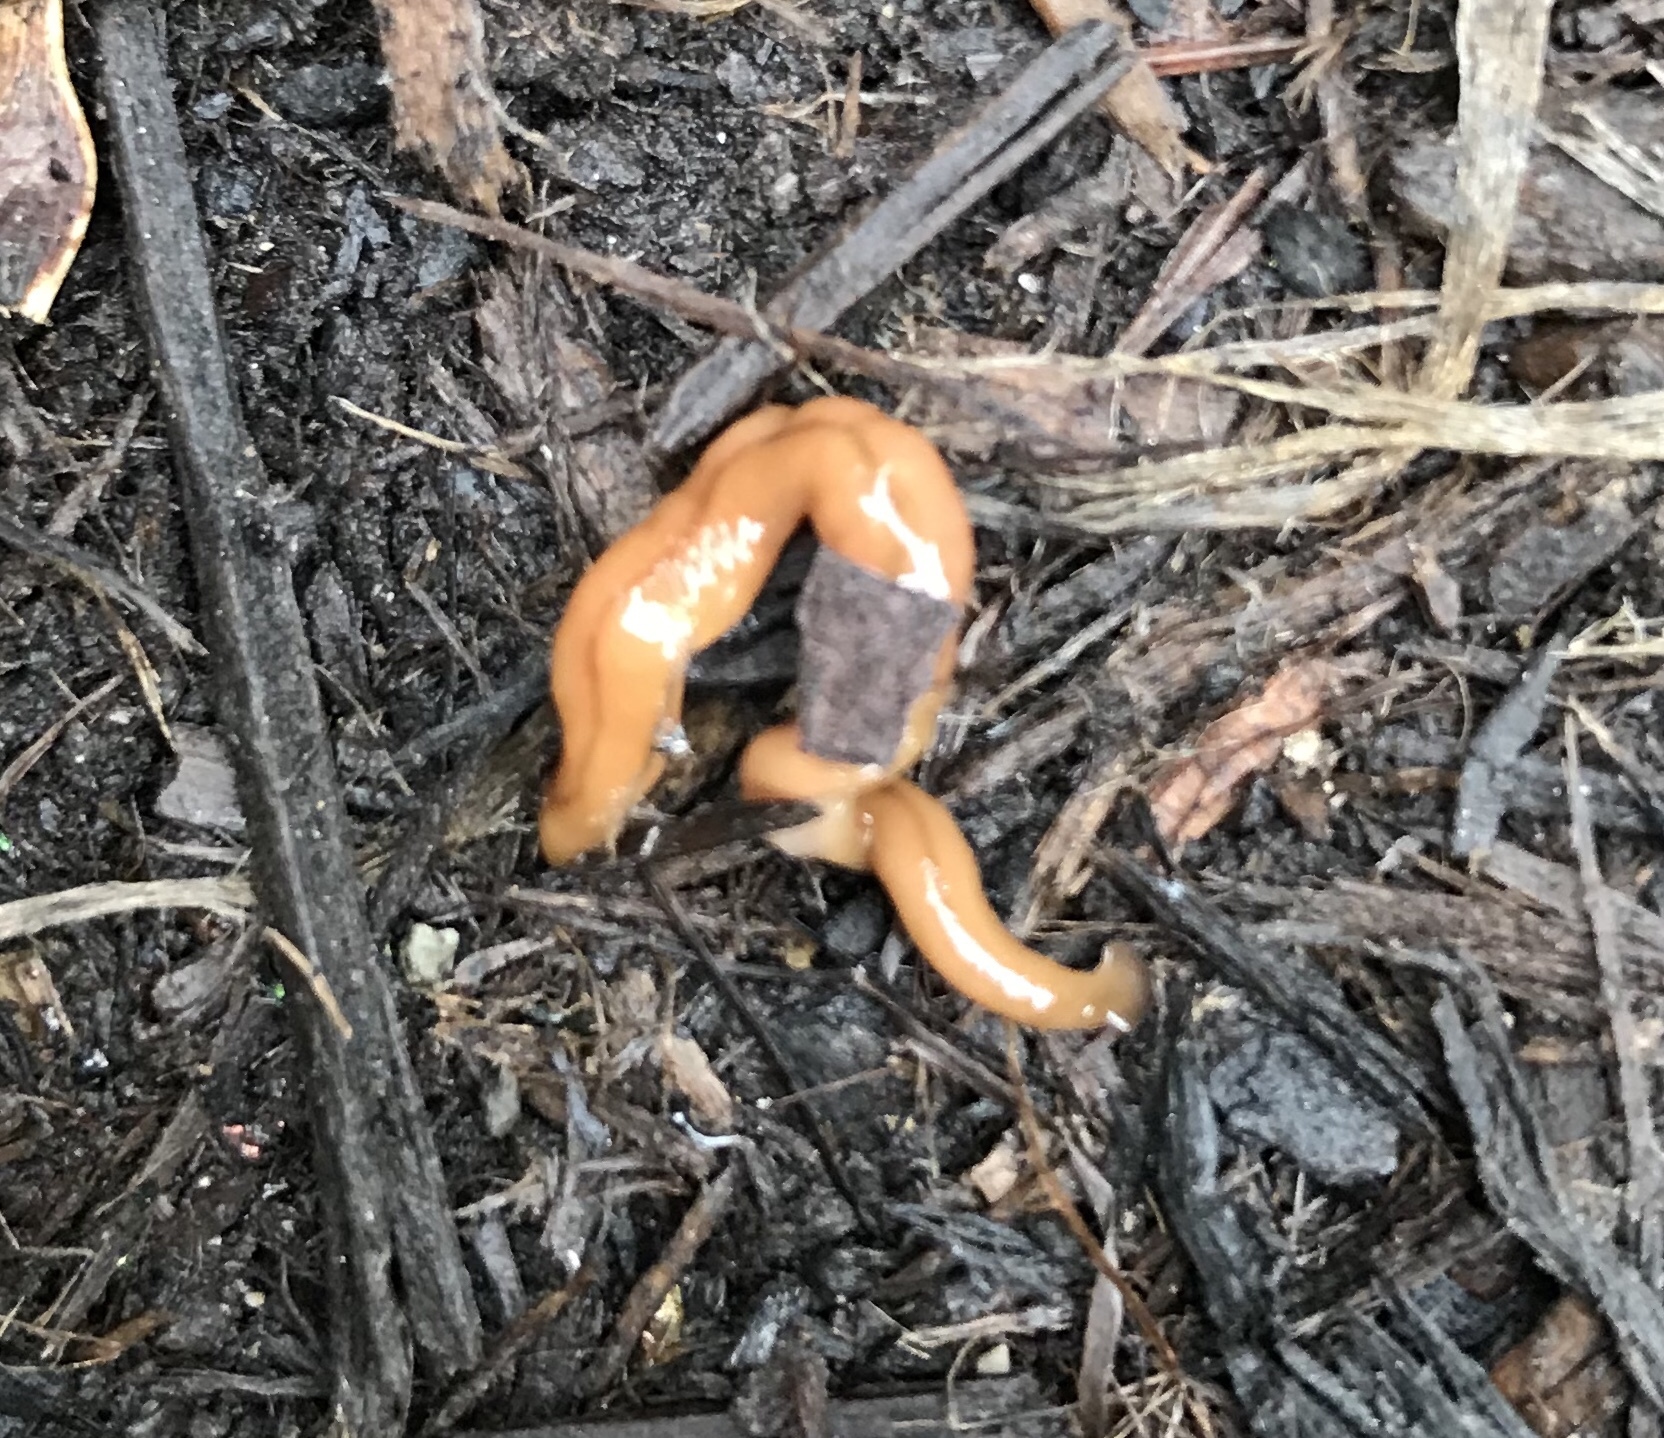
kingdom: Animalia
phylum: Platyhelminthes
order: Tricladida
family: Geoplanidae
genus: Bipalium
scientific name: Bipalium adventitium
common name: Land planarian
